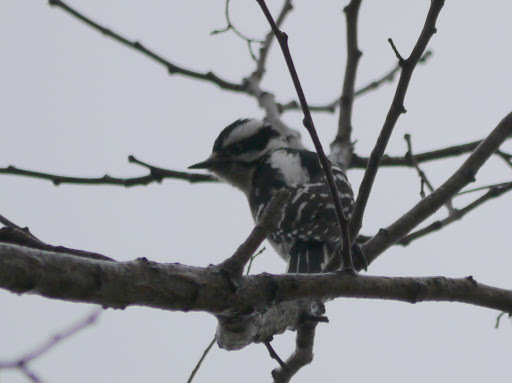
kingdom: Animalia
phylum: Chordata
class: Aves
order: Piciformes
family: Picidae
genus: Dryobates
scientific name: Dryobates pubescens
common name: Downy woodpecker
